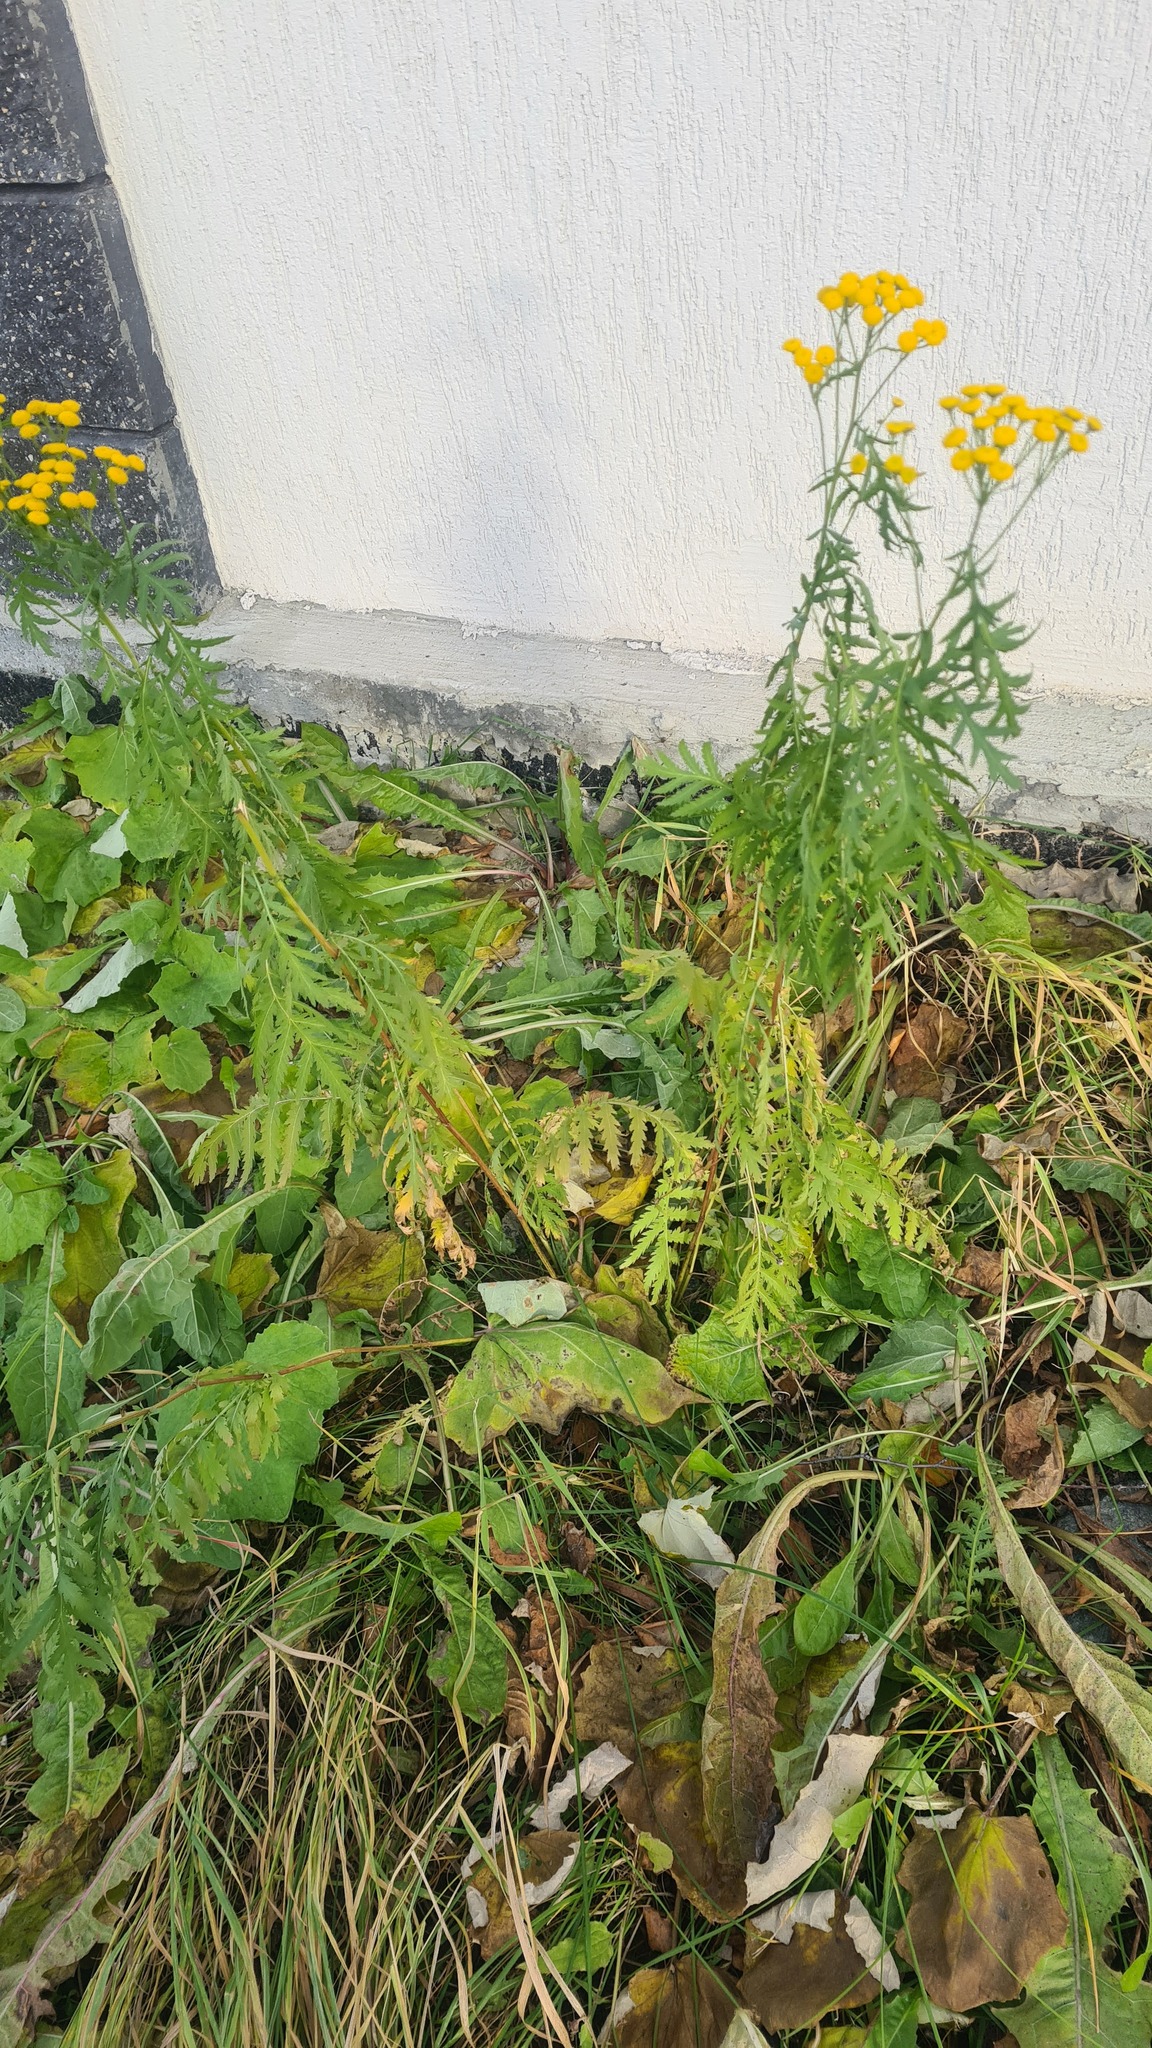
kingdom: Plantae
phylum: Tracheophyta
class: Magnoliopsida
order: Asterales
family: Asteraceae
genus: Tanacetum
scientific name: Tanacetum vulgare
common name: Common tansy
